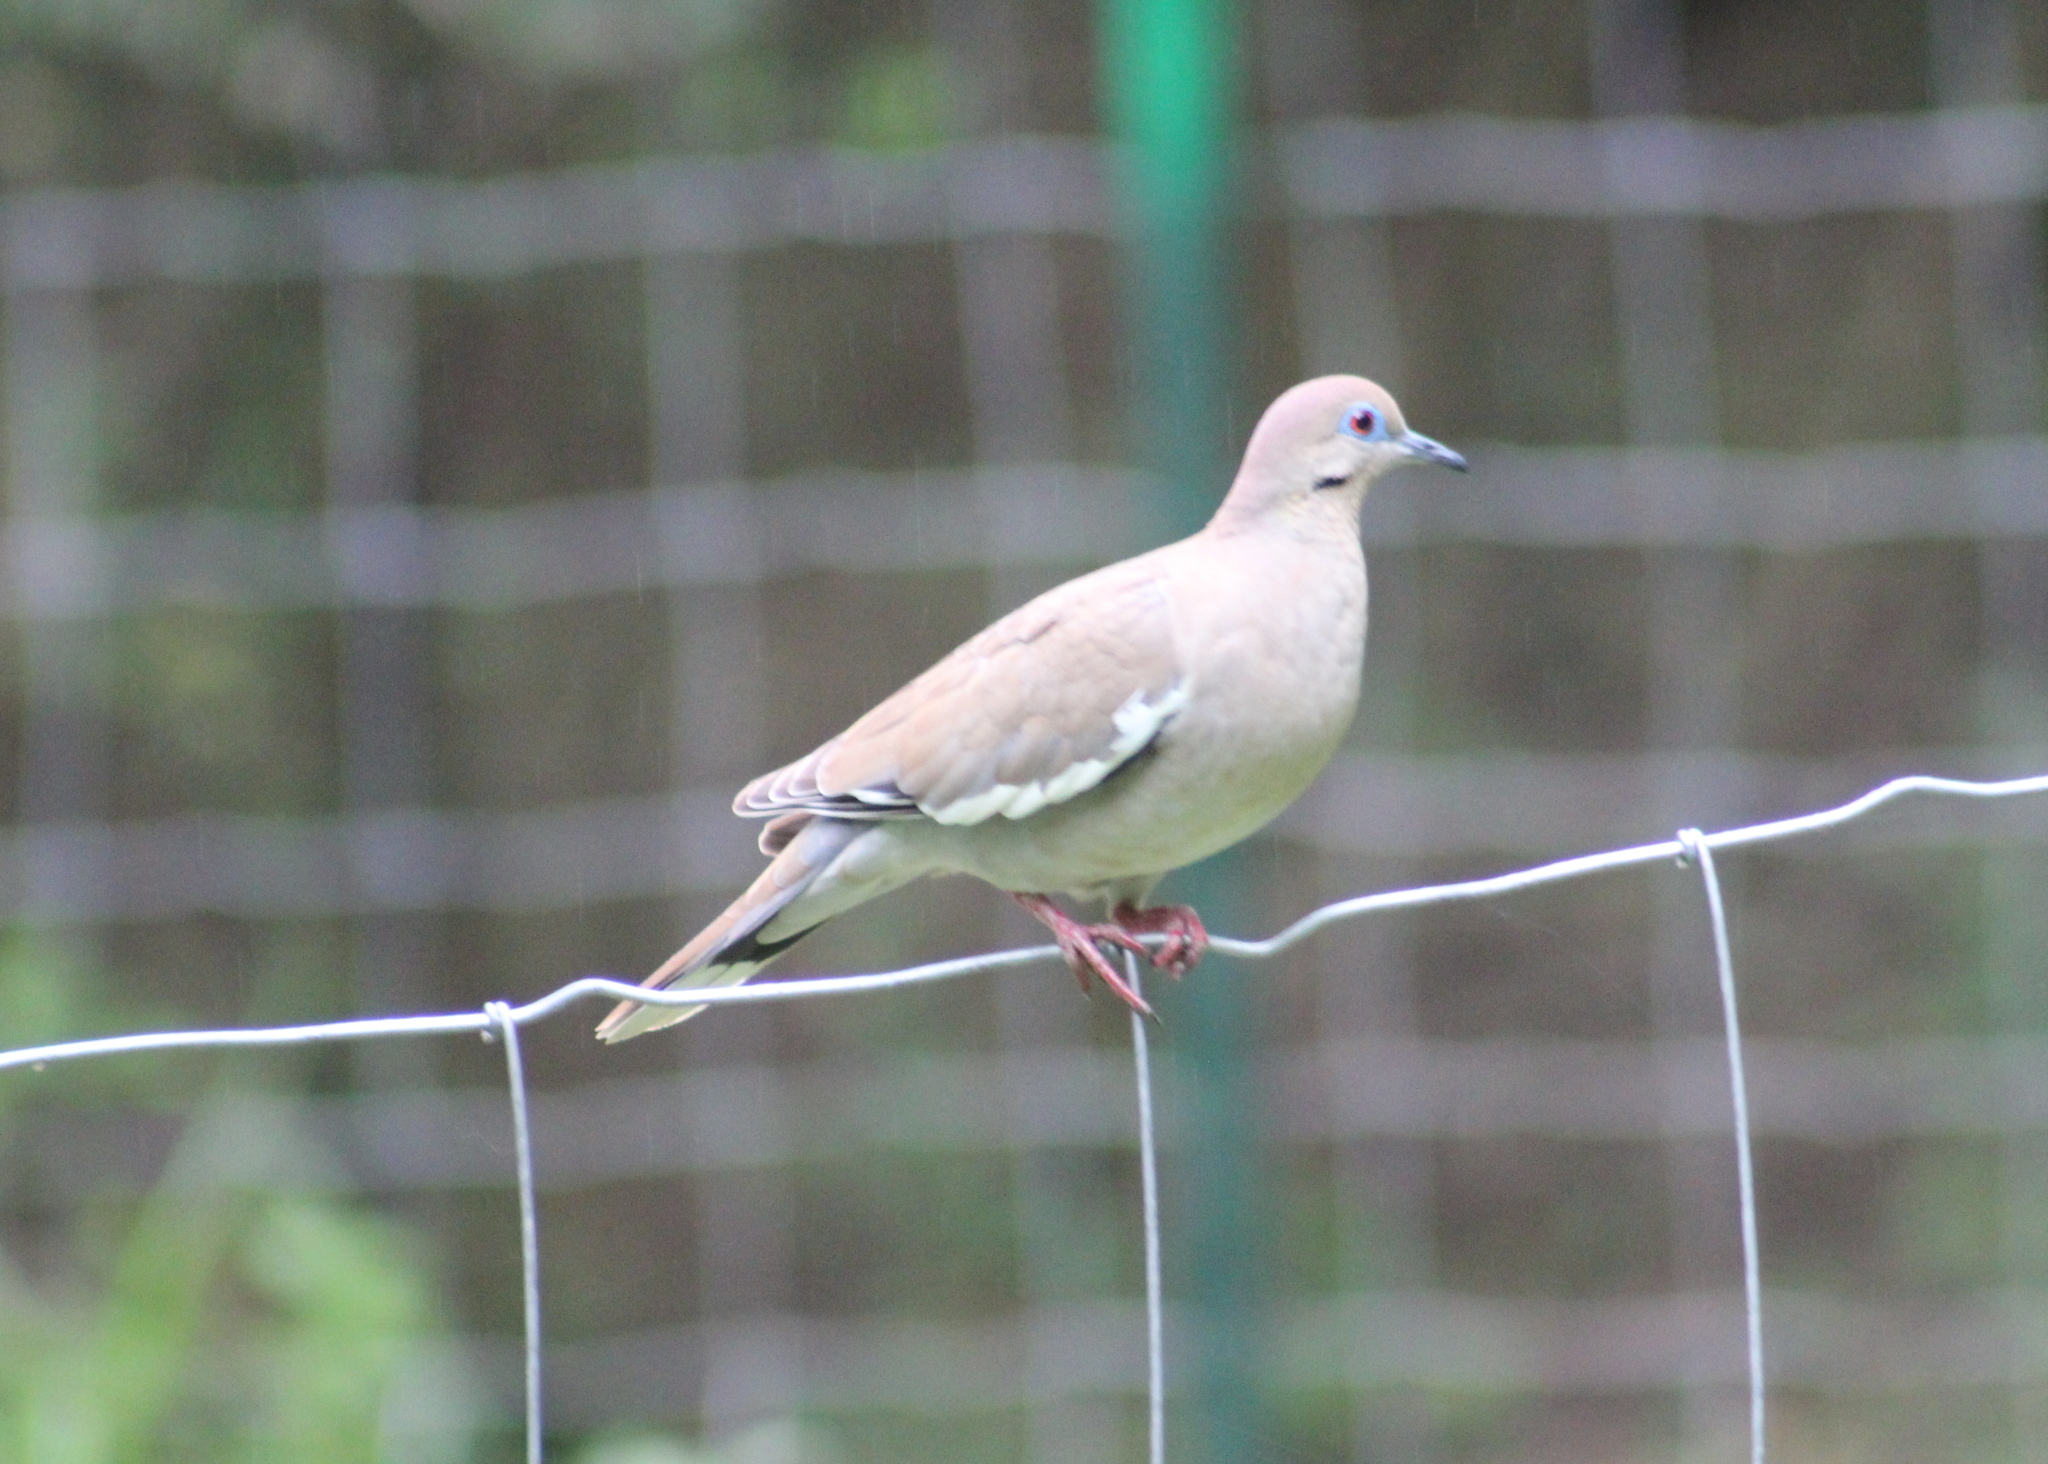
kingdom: Animalia
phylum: Chordata
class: Aves
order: Columbiformes
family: Columbidae
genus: Zenaida
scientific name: Zenaida asiatica
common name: White-winged dove
